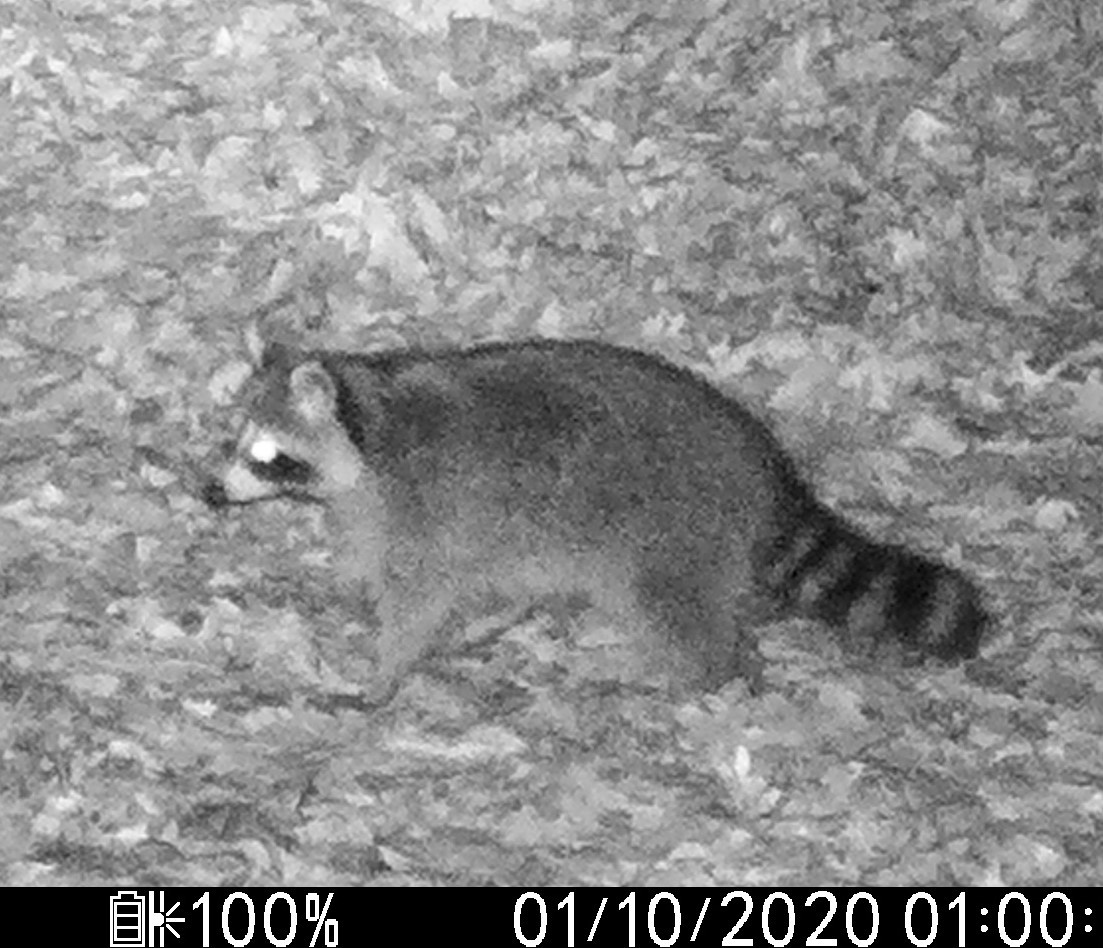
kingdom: Animalia
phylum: Chordata
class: Mammalia
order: Carnivora
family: Procyonidae
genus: Procyon
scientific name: Procyon lotor
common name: Raccoon
